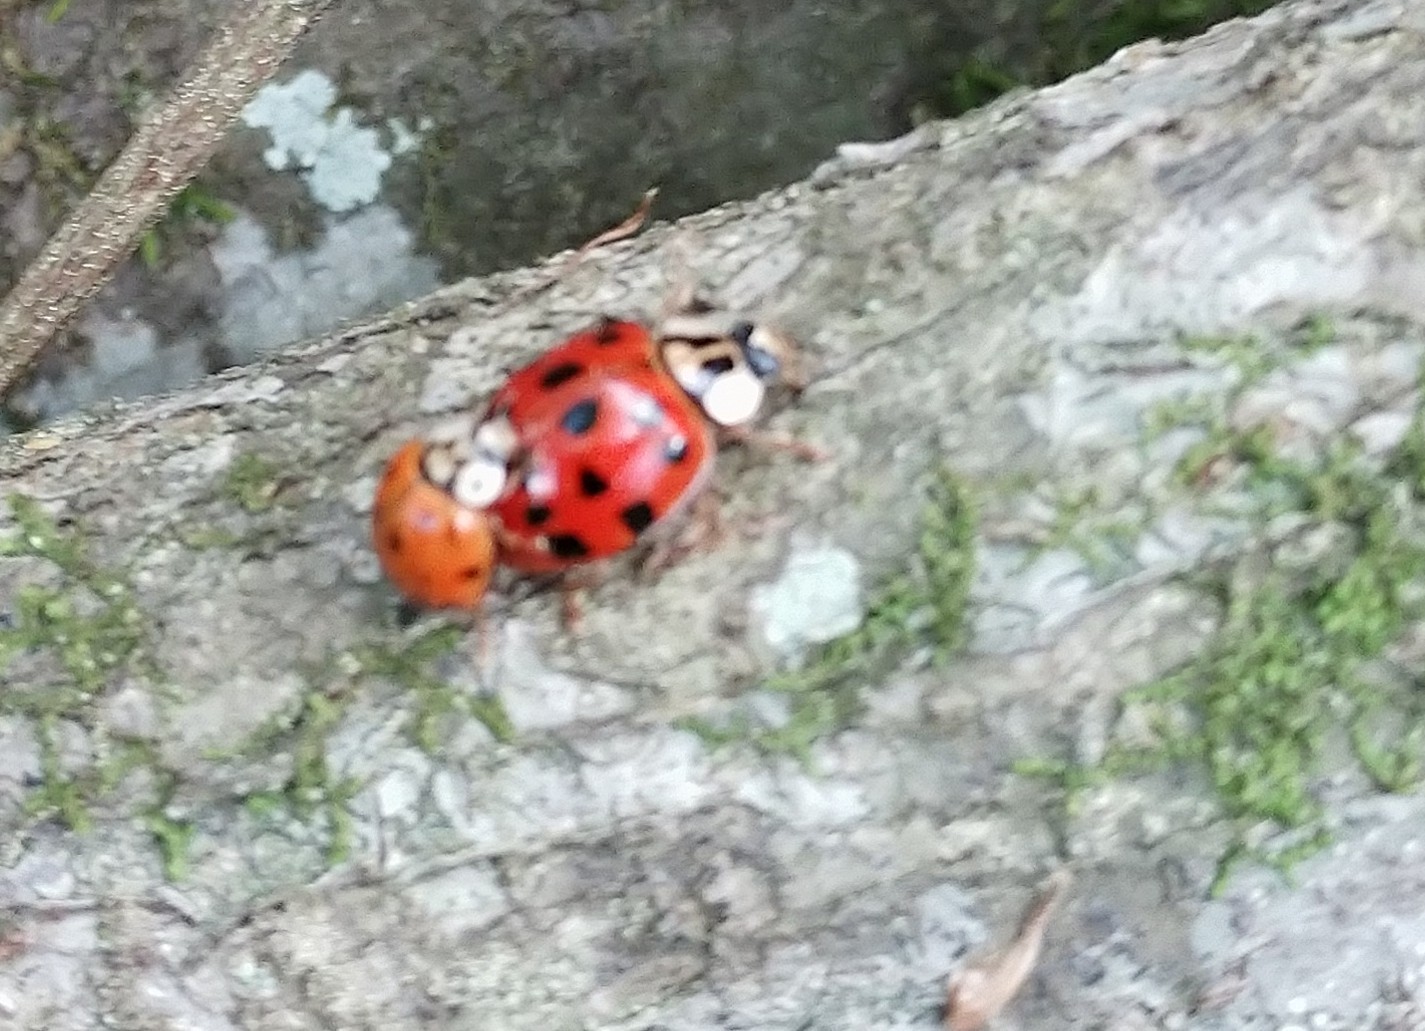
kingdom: Animalia
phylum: Arthropoda
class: Insecta
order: Coleoptera
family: Coccinellidae
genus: Harmonia
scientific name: Harmonia axyridis
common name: Harlequin ladybird
